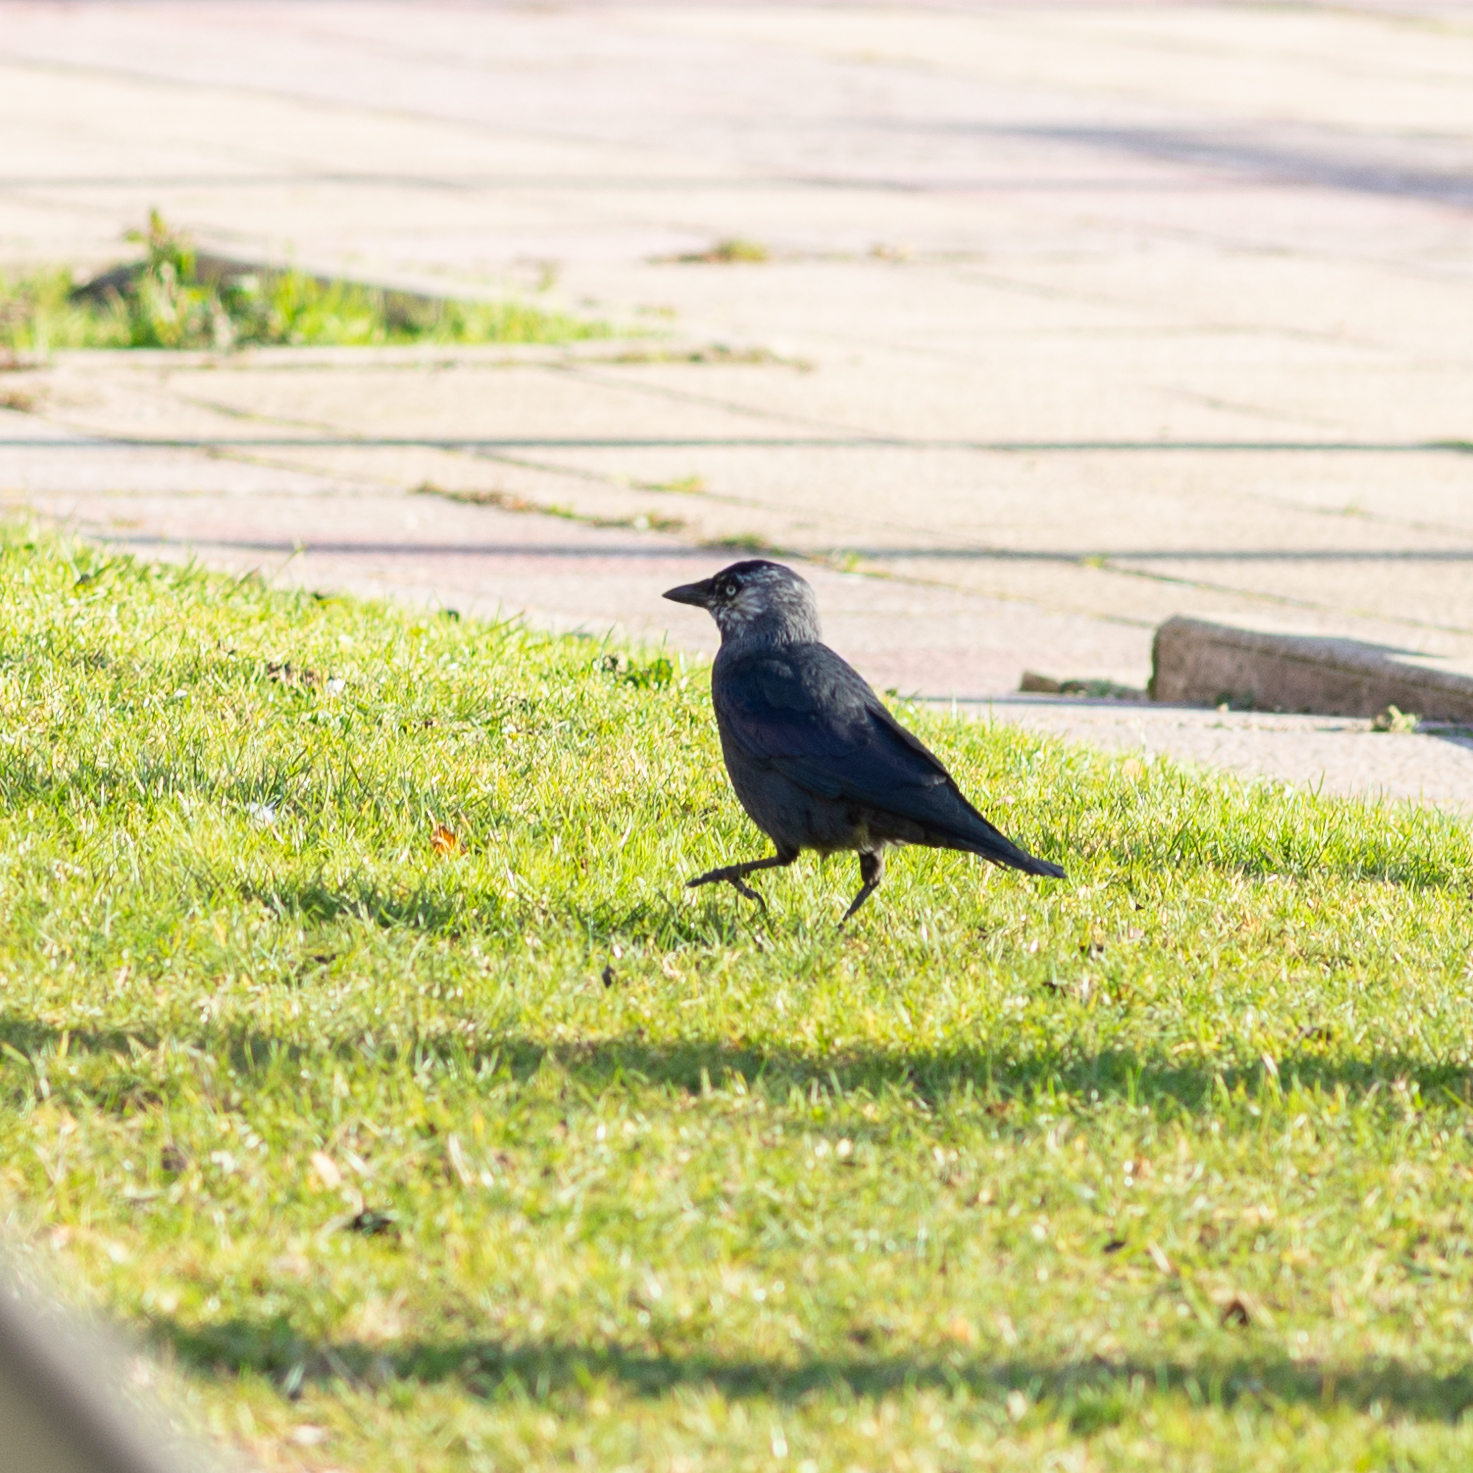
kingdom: Animalia
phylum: Chordata
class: Aves
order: Passeriformes
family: Corvidae
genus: Coloeus
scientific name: Coloeus monedula
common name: Western jackdaw
